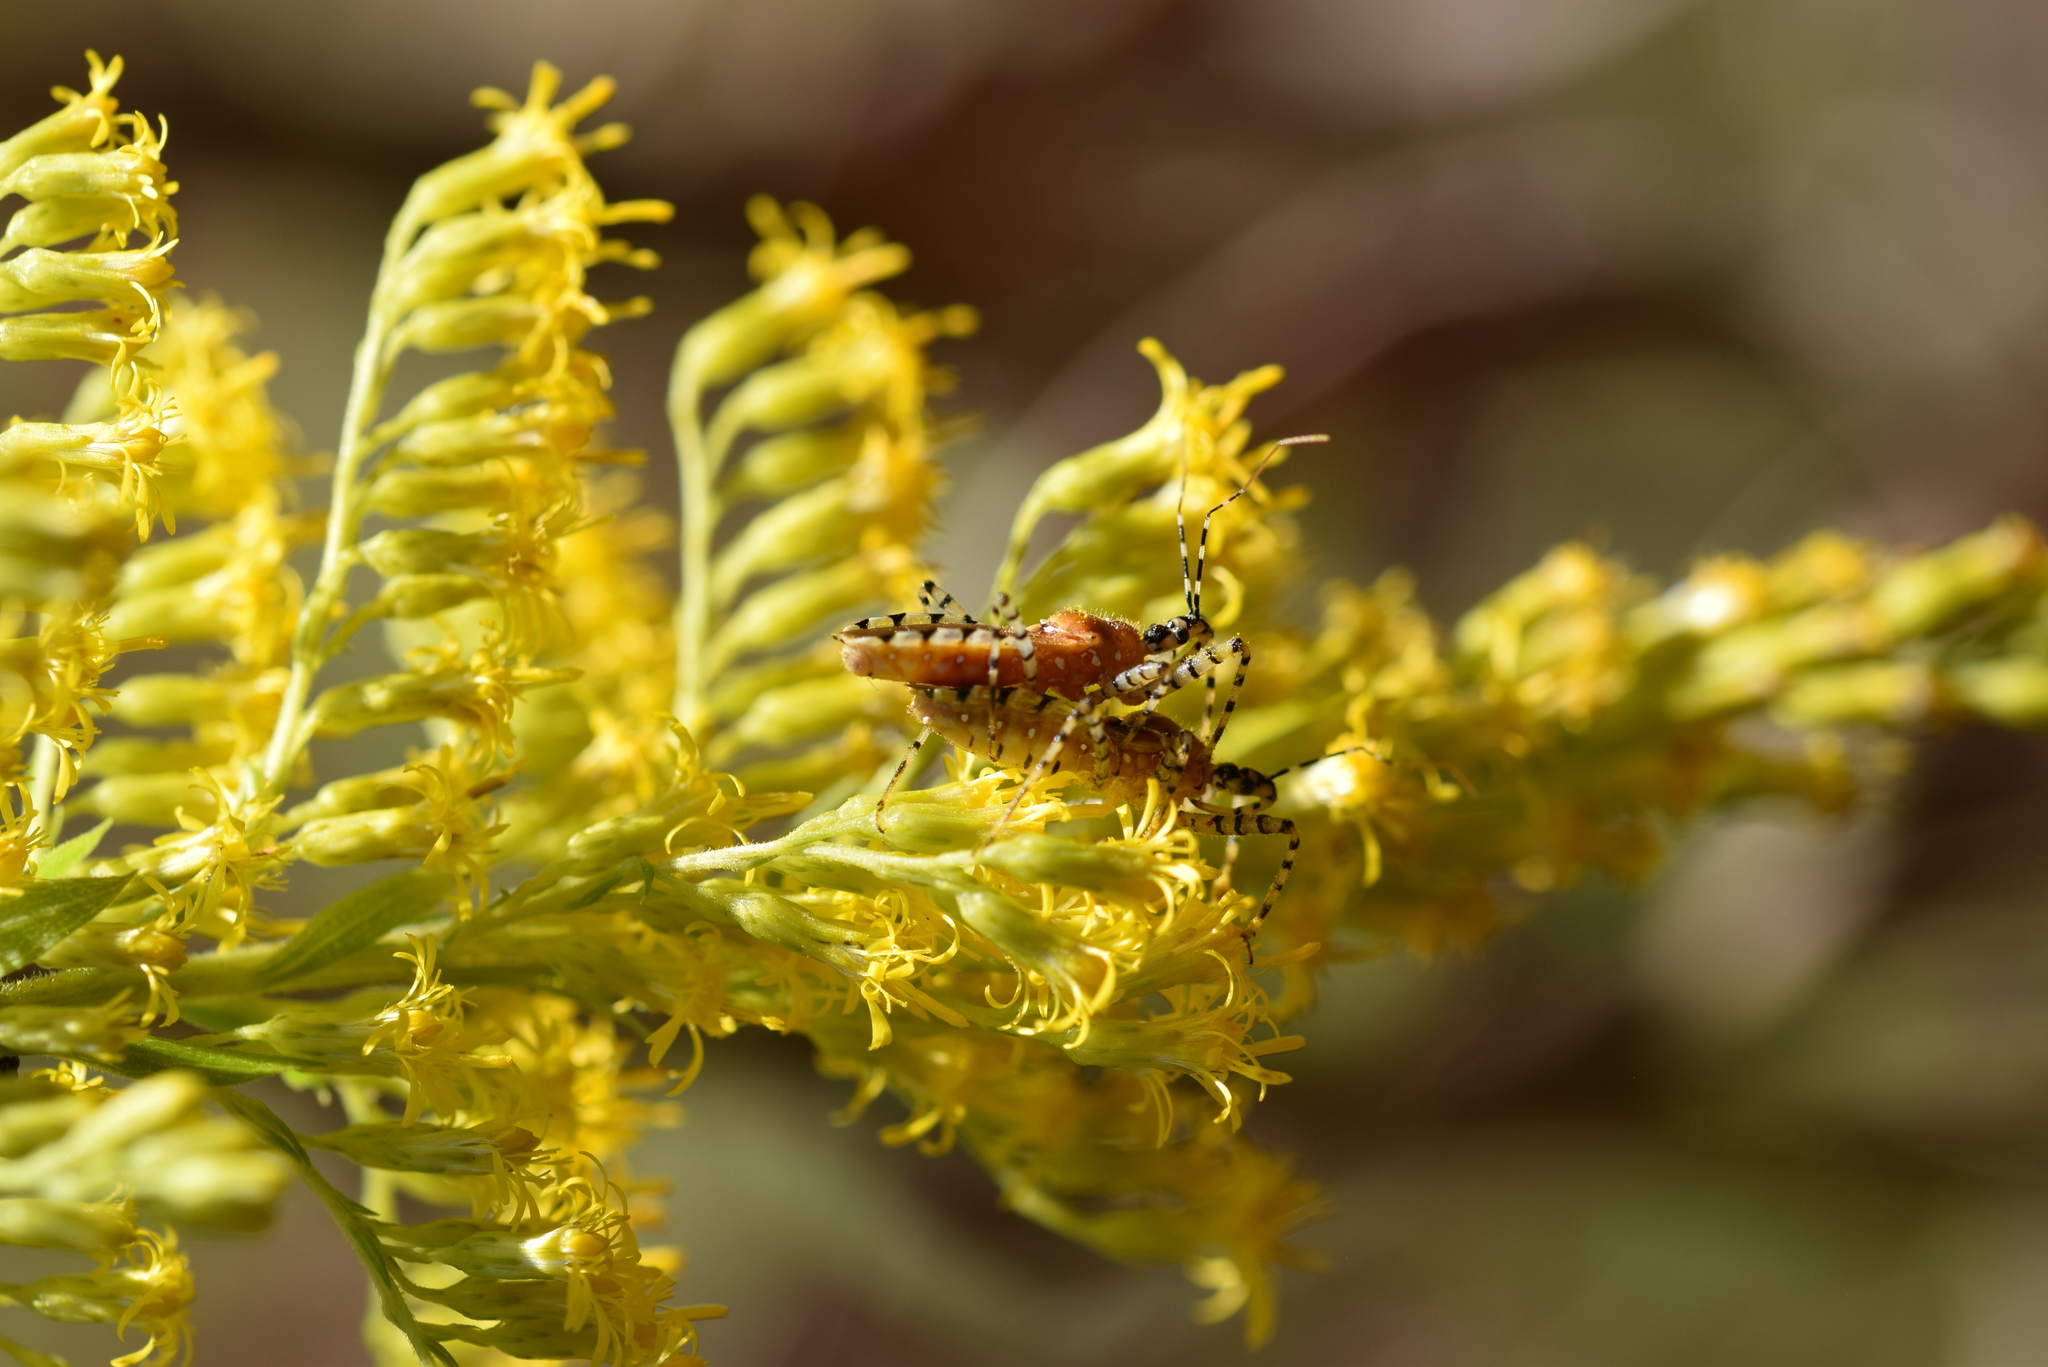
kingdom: Animalia
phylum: Arthropoda
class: Insecta
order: Hemiptera
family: Reduviidae
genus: Pselliopus
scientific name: Pselliopus cinctus
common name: Ringed assassin bug
